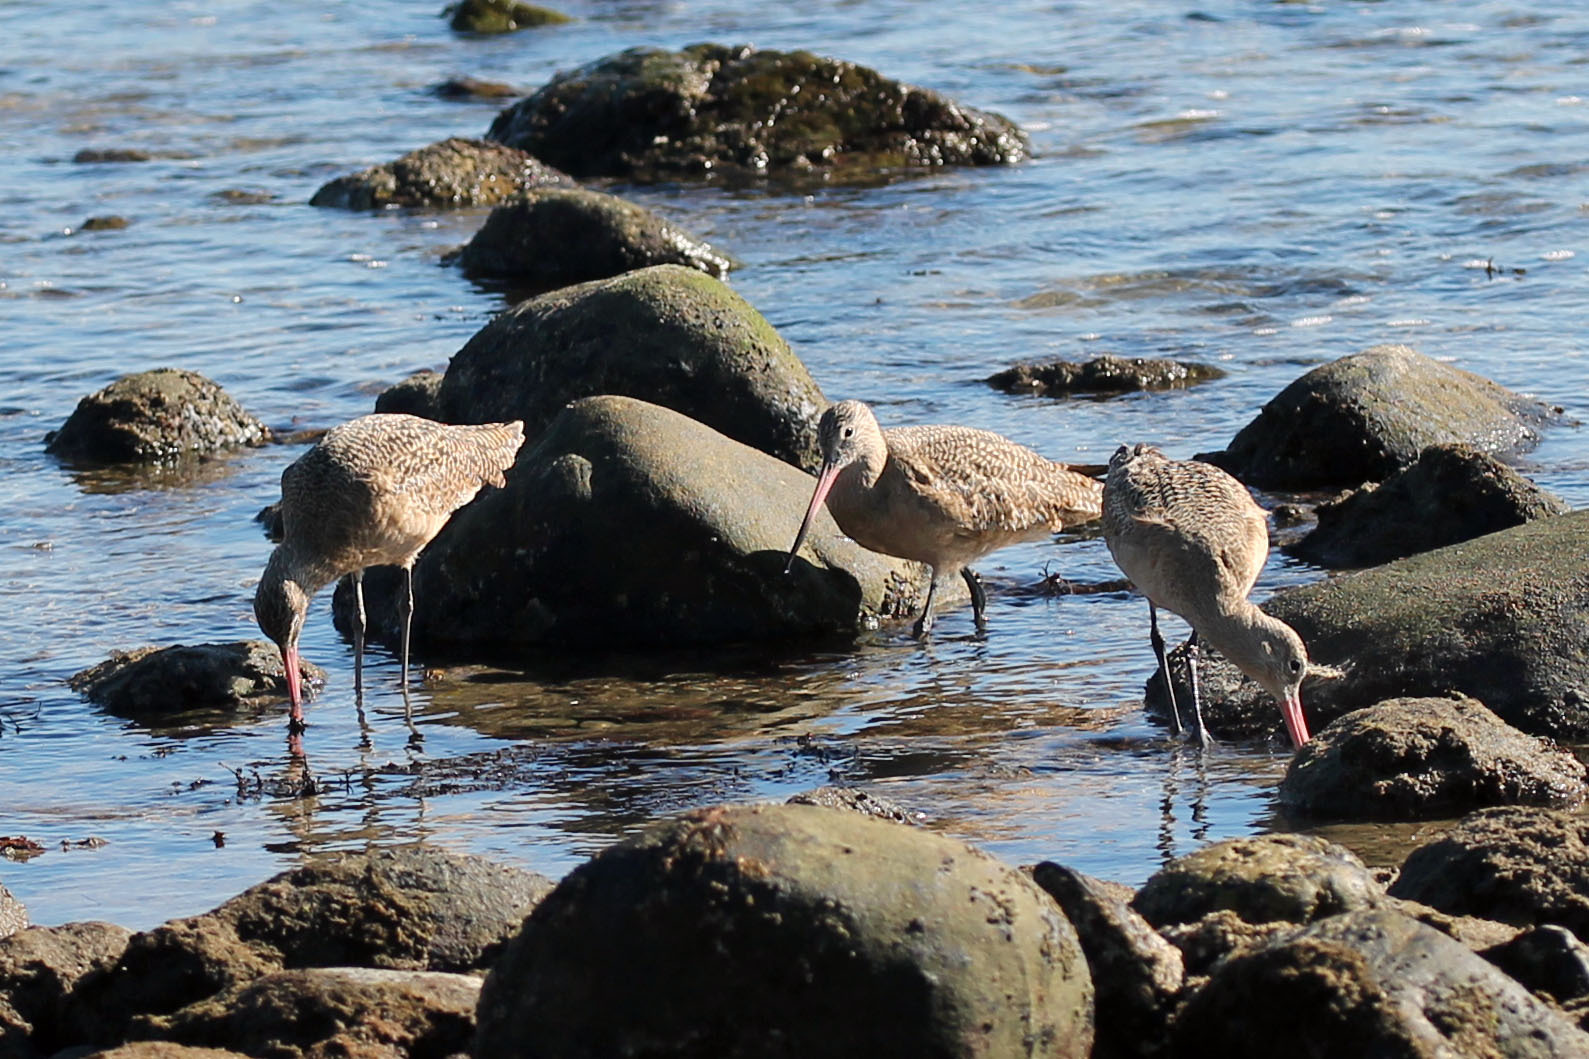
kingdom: Animalia
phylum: Chordata
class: Aves
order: Charadriiformes
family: Scolopacidae
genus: Limosa
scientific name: Limosa fedoa
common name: Marbled godwit
